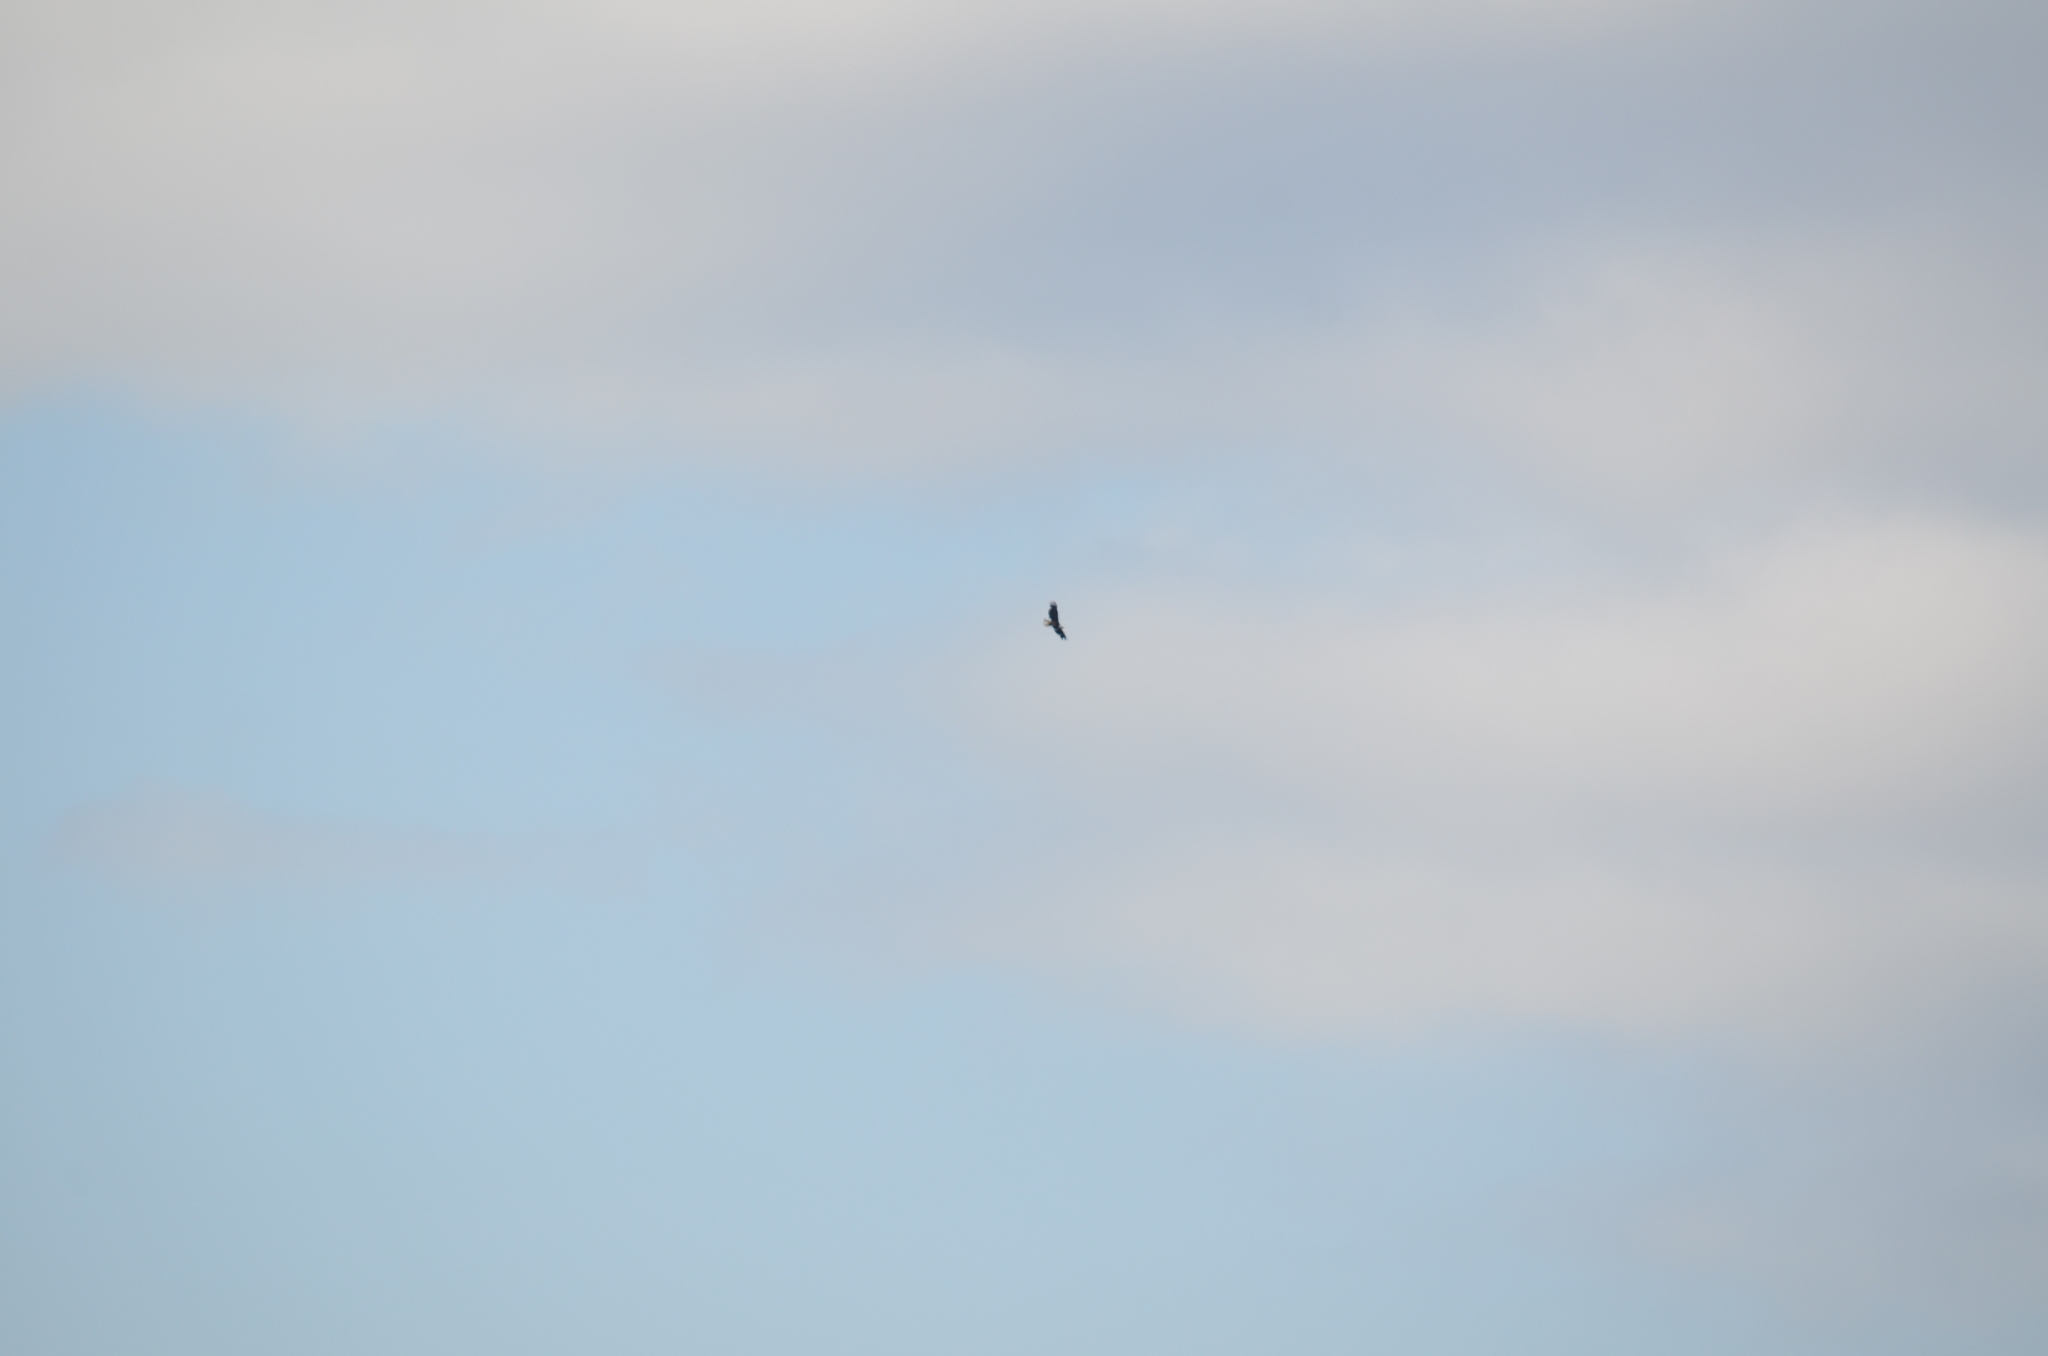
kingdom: Animalia
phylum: Chordata
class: Aves
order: Accipitriformes
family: Accipitridae
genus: Haliaeetus
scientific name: Haliaeetus leucocephalus
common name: Bald eagle
